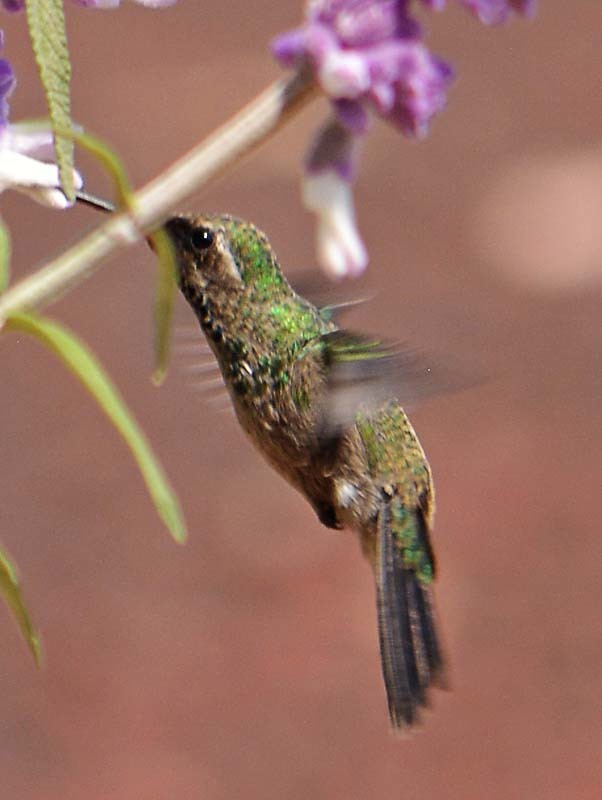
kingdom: Animalia
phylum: Chordata
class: Aves
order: Apodiformes
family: Trochilidae
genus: Cynanthus
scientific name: Cynanthus latirostris
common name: Broad-billed hummingbird
